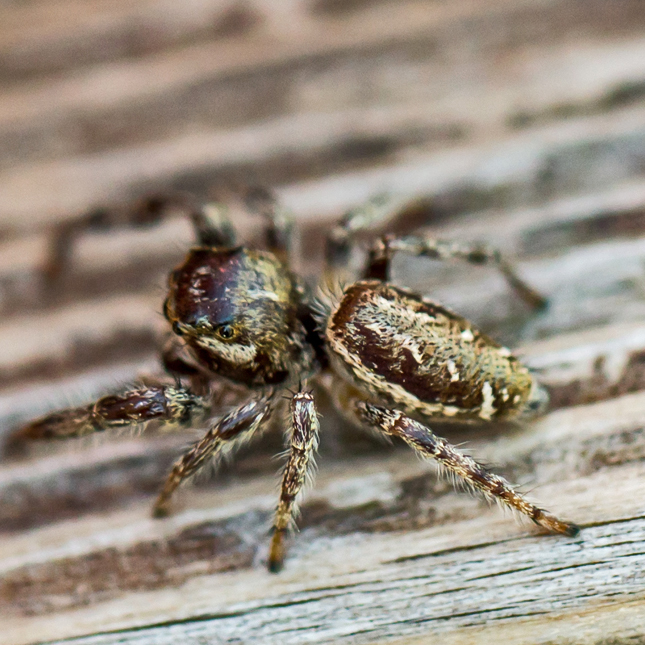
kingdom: Animalia
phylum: Arthropoda
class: Arachnida
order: Araneae
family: Salticidae
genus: Eris
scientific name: Eris flava
